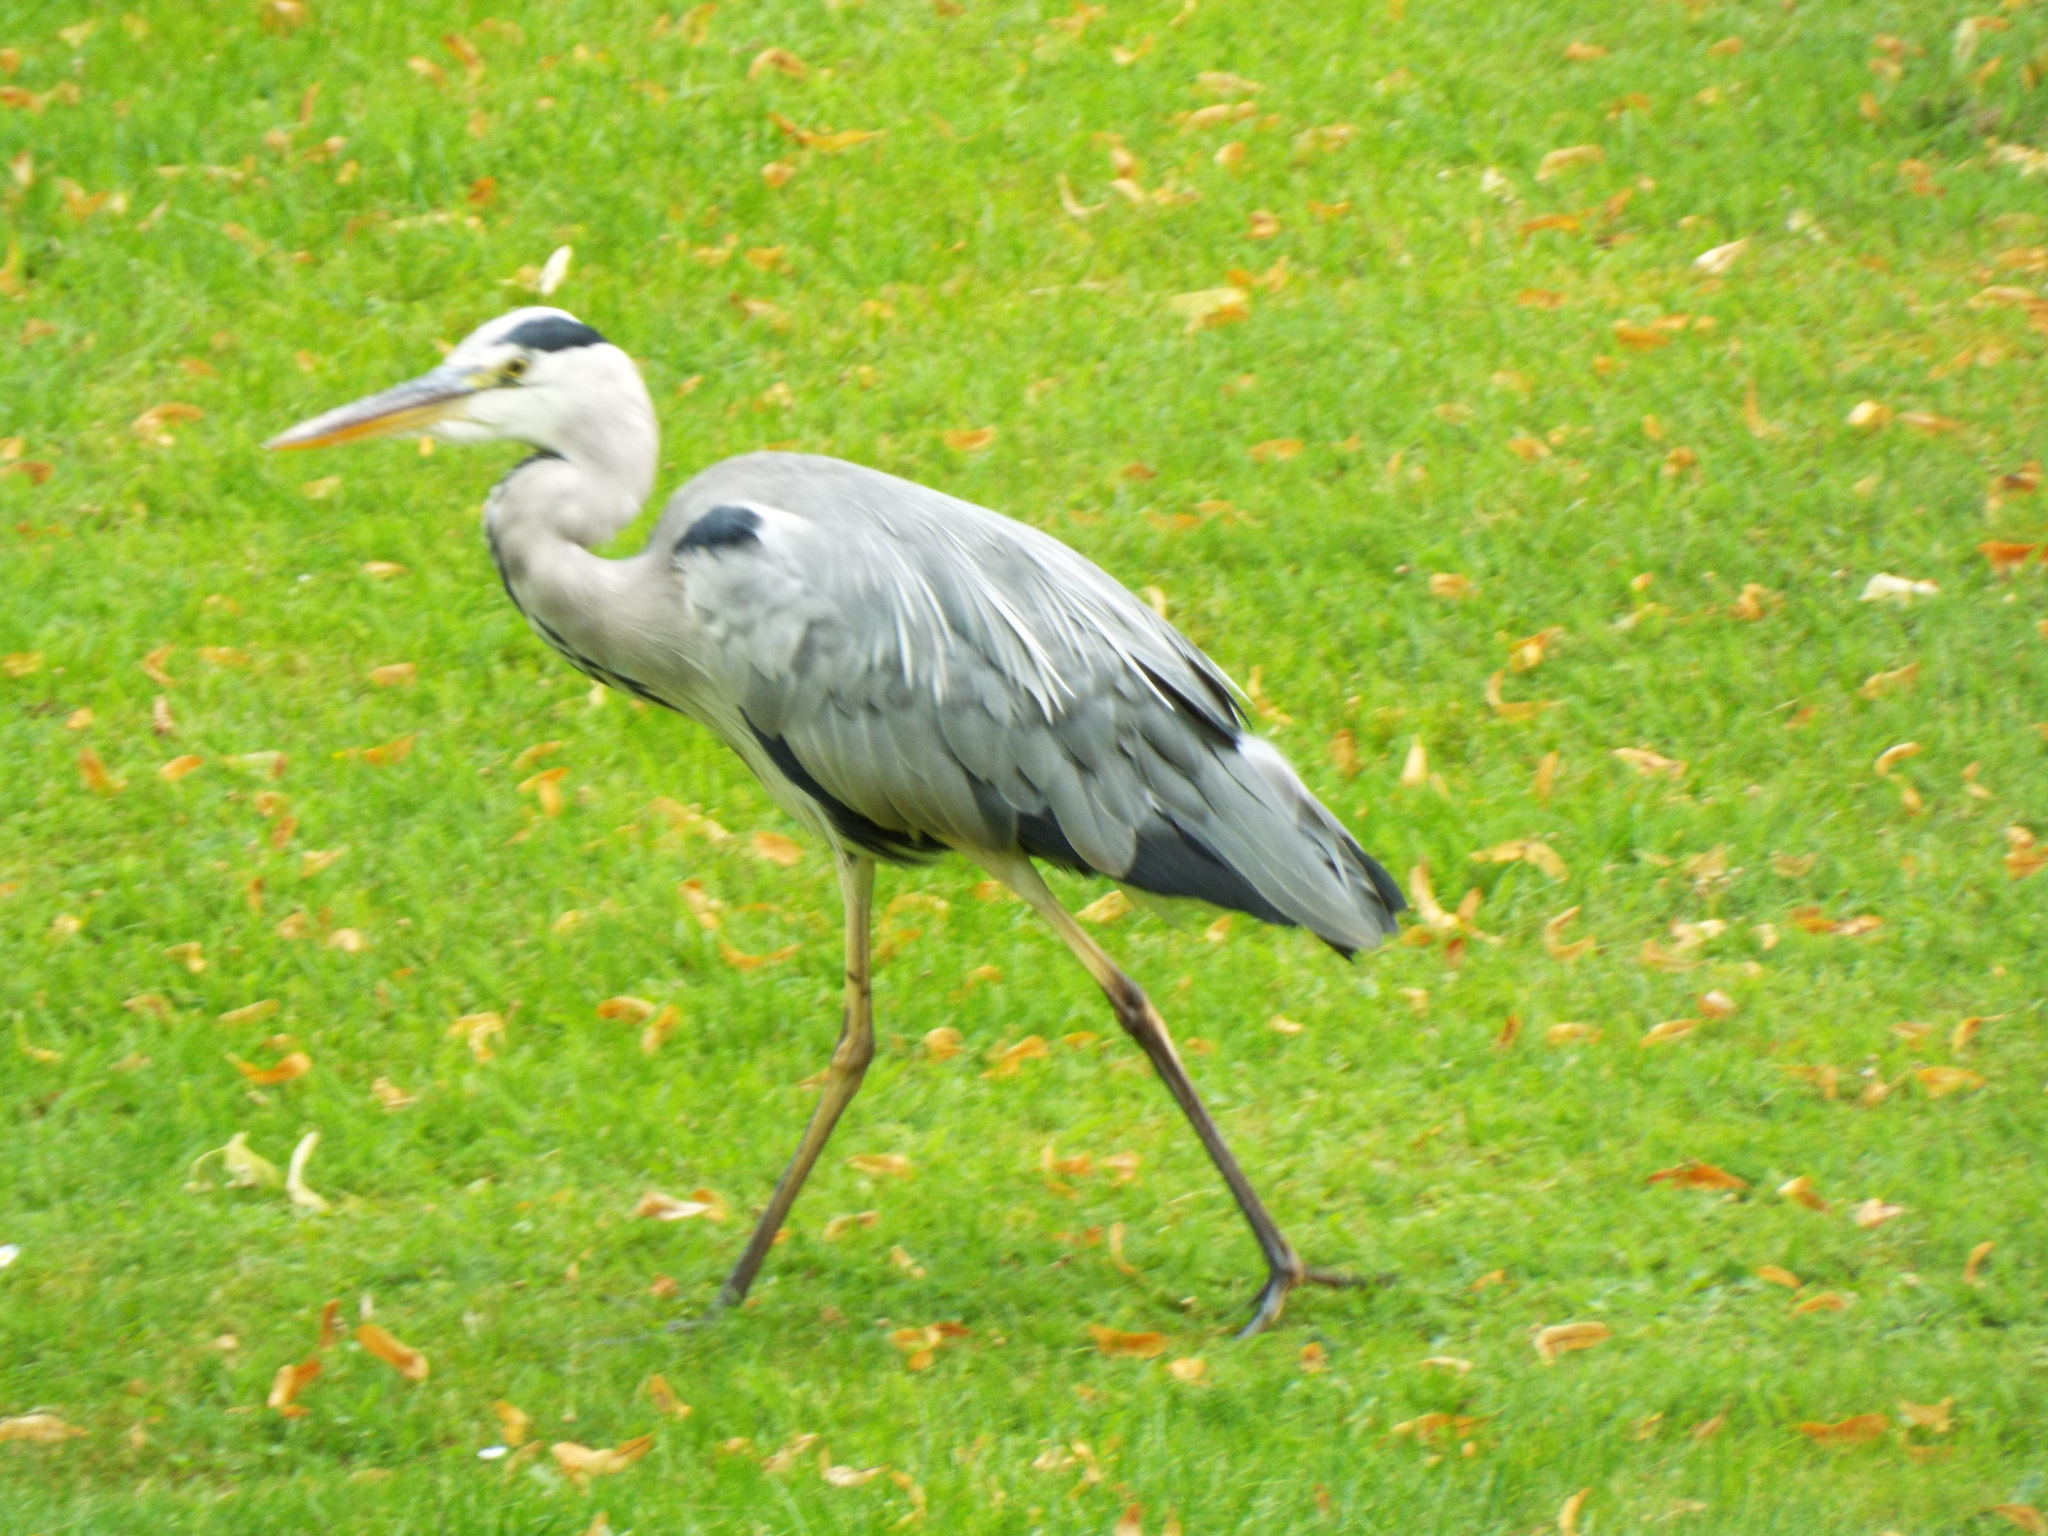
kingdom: Animalia
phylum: Chordata
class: Aves
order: Pelecaniformes
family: Ardeidae
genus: Ardea
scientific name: Ardea cinerea
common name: Grey heron
